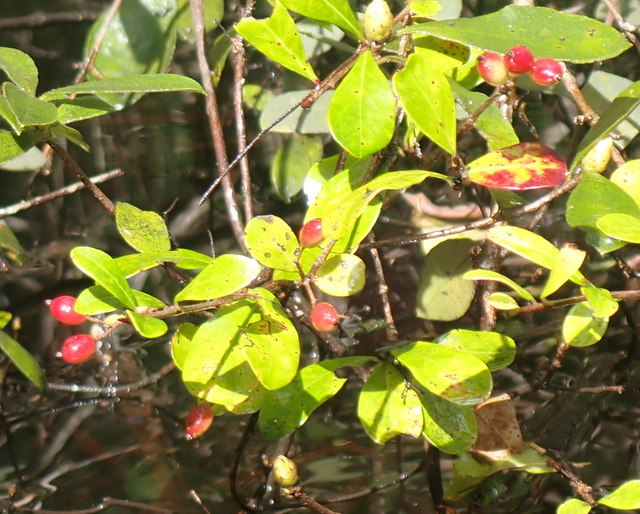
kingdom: Plantae
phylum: Tracheophyta
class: Magnoliopsida
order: Dipsacales
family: Viburnaceae
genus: Viburnum
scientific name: Viburnum obovatum
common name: Walter's viburnum
